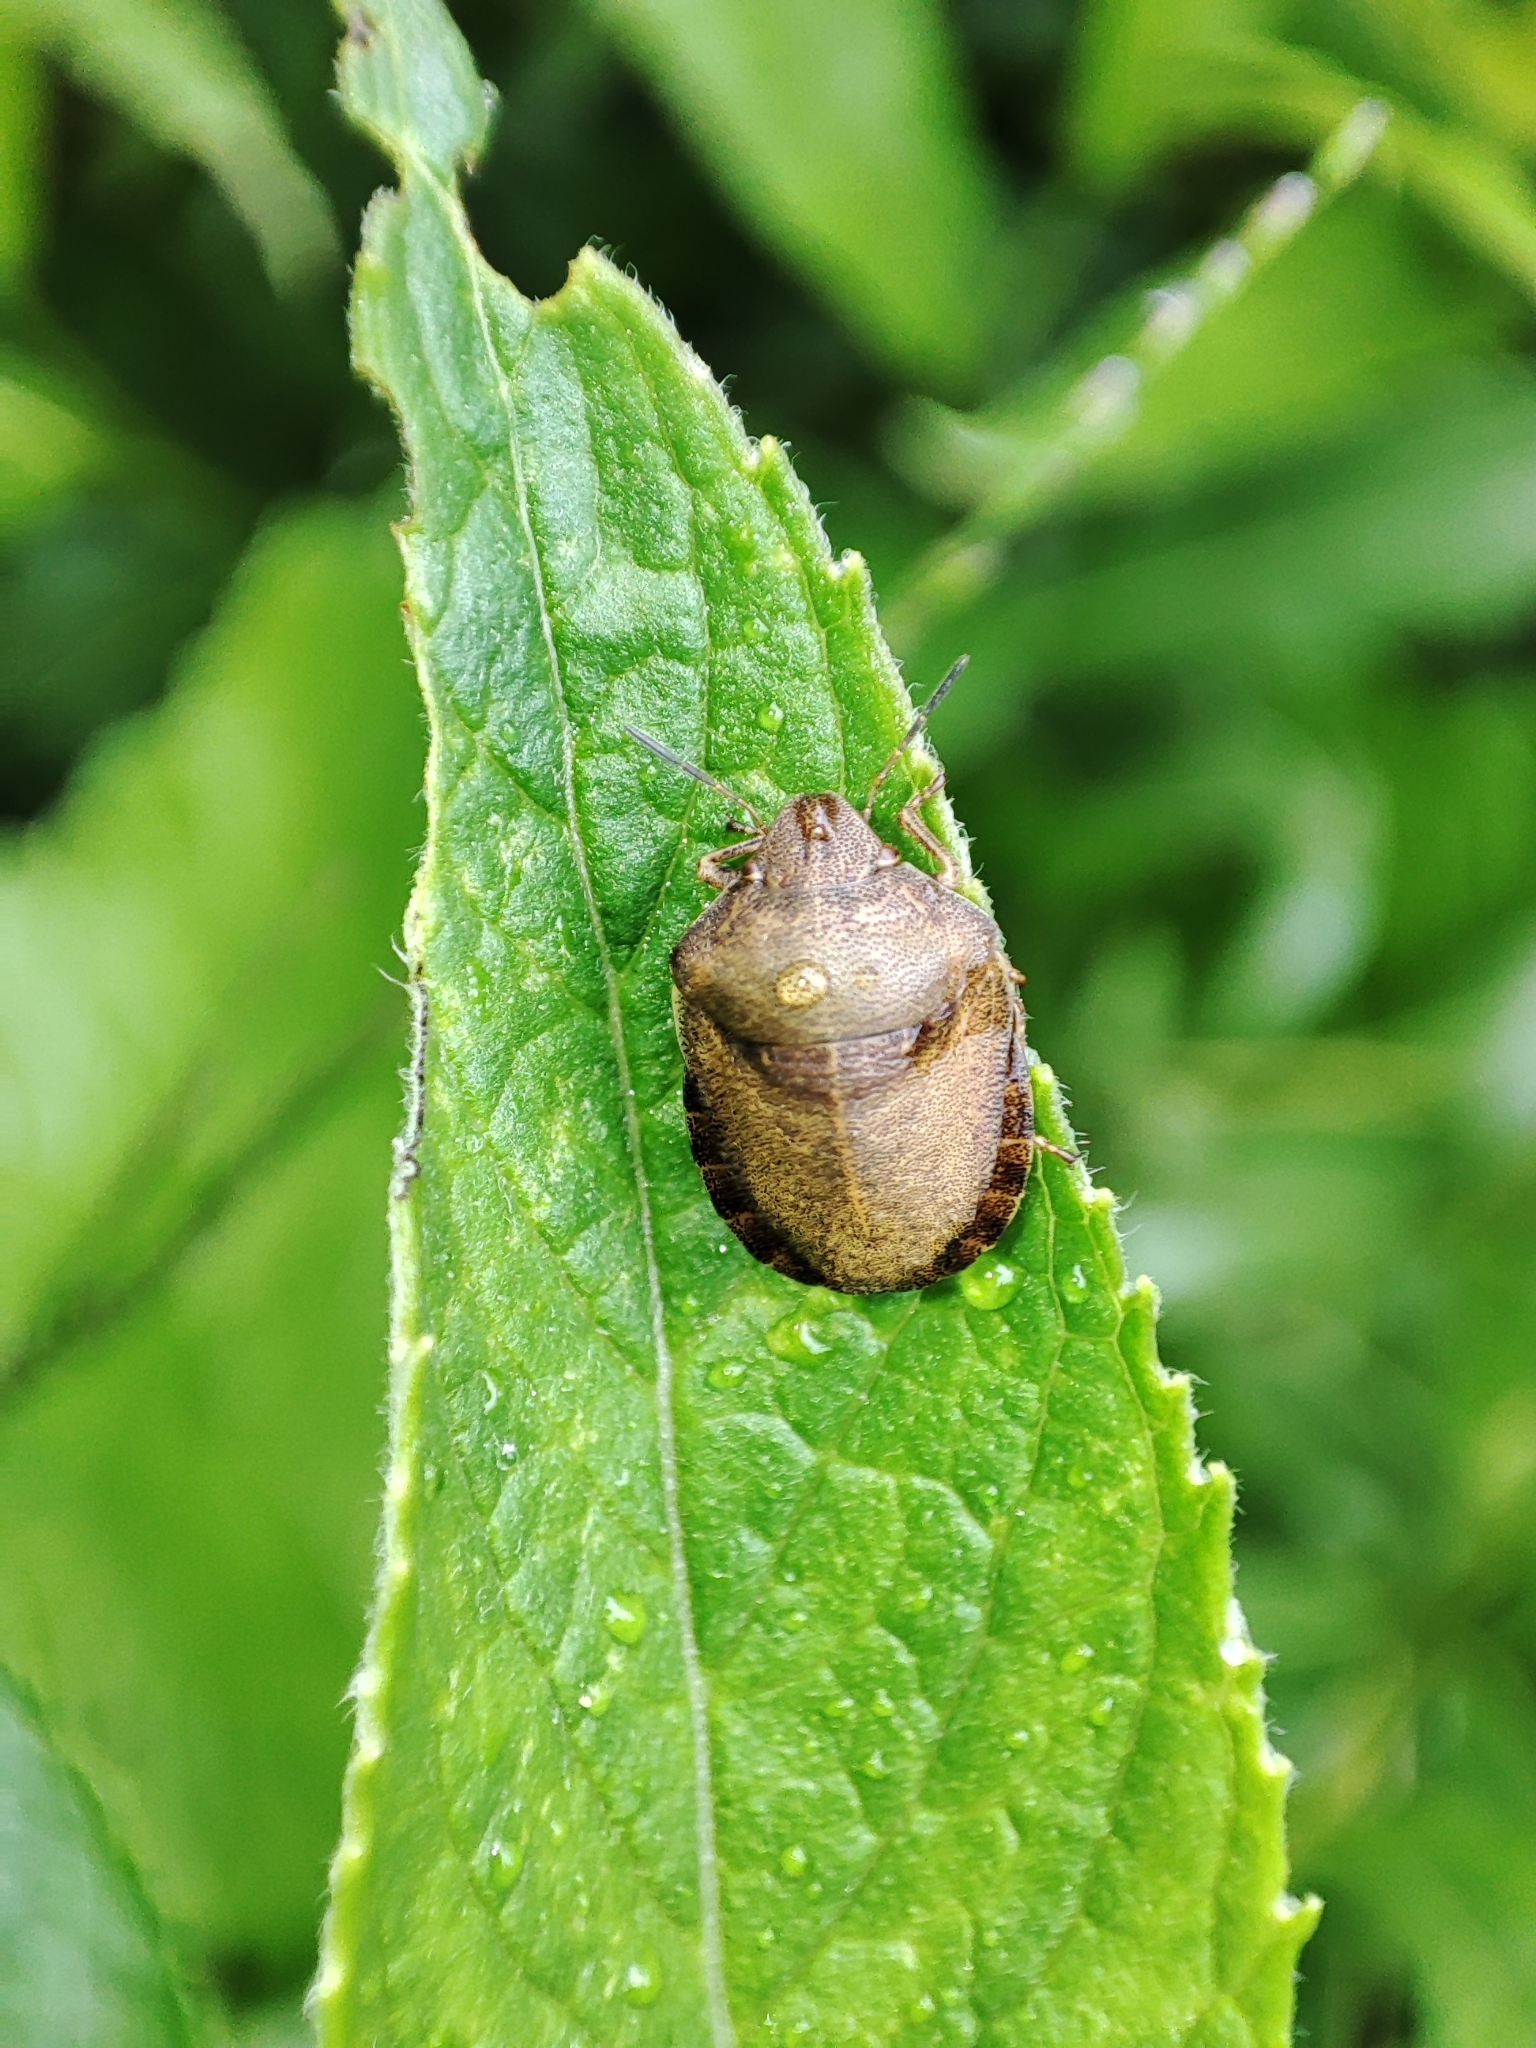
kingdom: Animalia
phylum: Arthropoda
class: Insecta
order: Hemiptera
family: Scutelleridae
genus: Eurygaster
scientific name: Eurygaster testudinaria
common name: Tortoise bug
